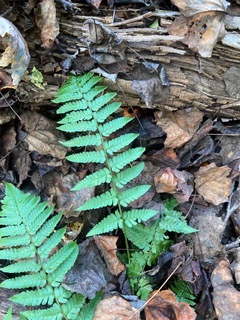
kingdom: Plantae
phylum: Tracheophyta
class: Polypodiopsida
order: Polypodiales
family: Dryopteridaceae
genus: Dryopteris
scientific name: Dryopteris cristata
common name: Crested wood fern
